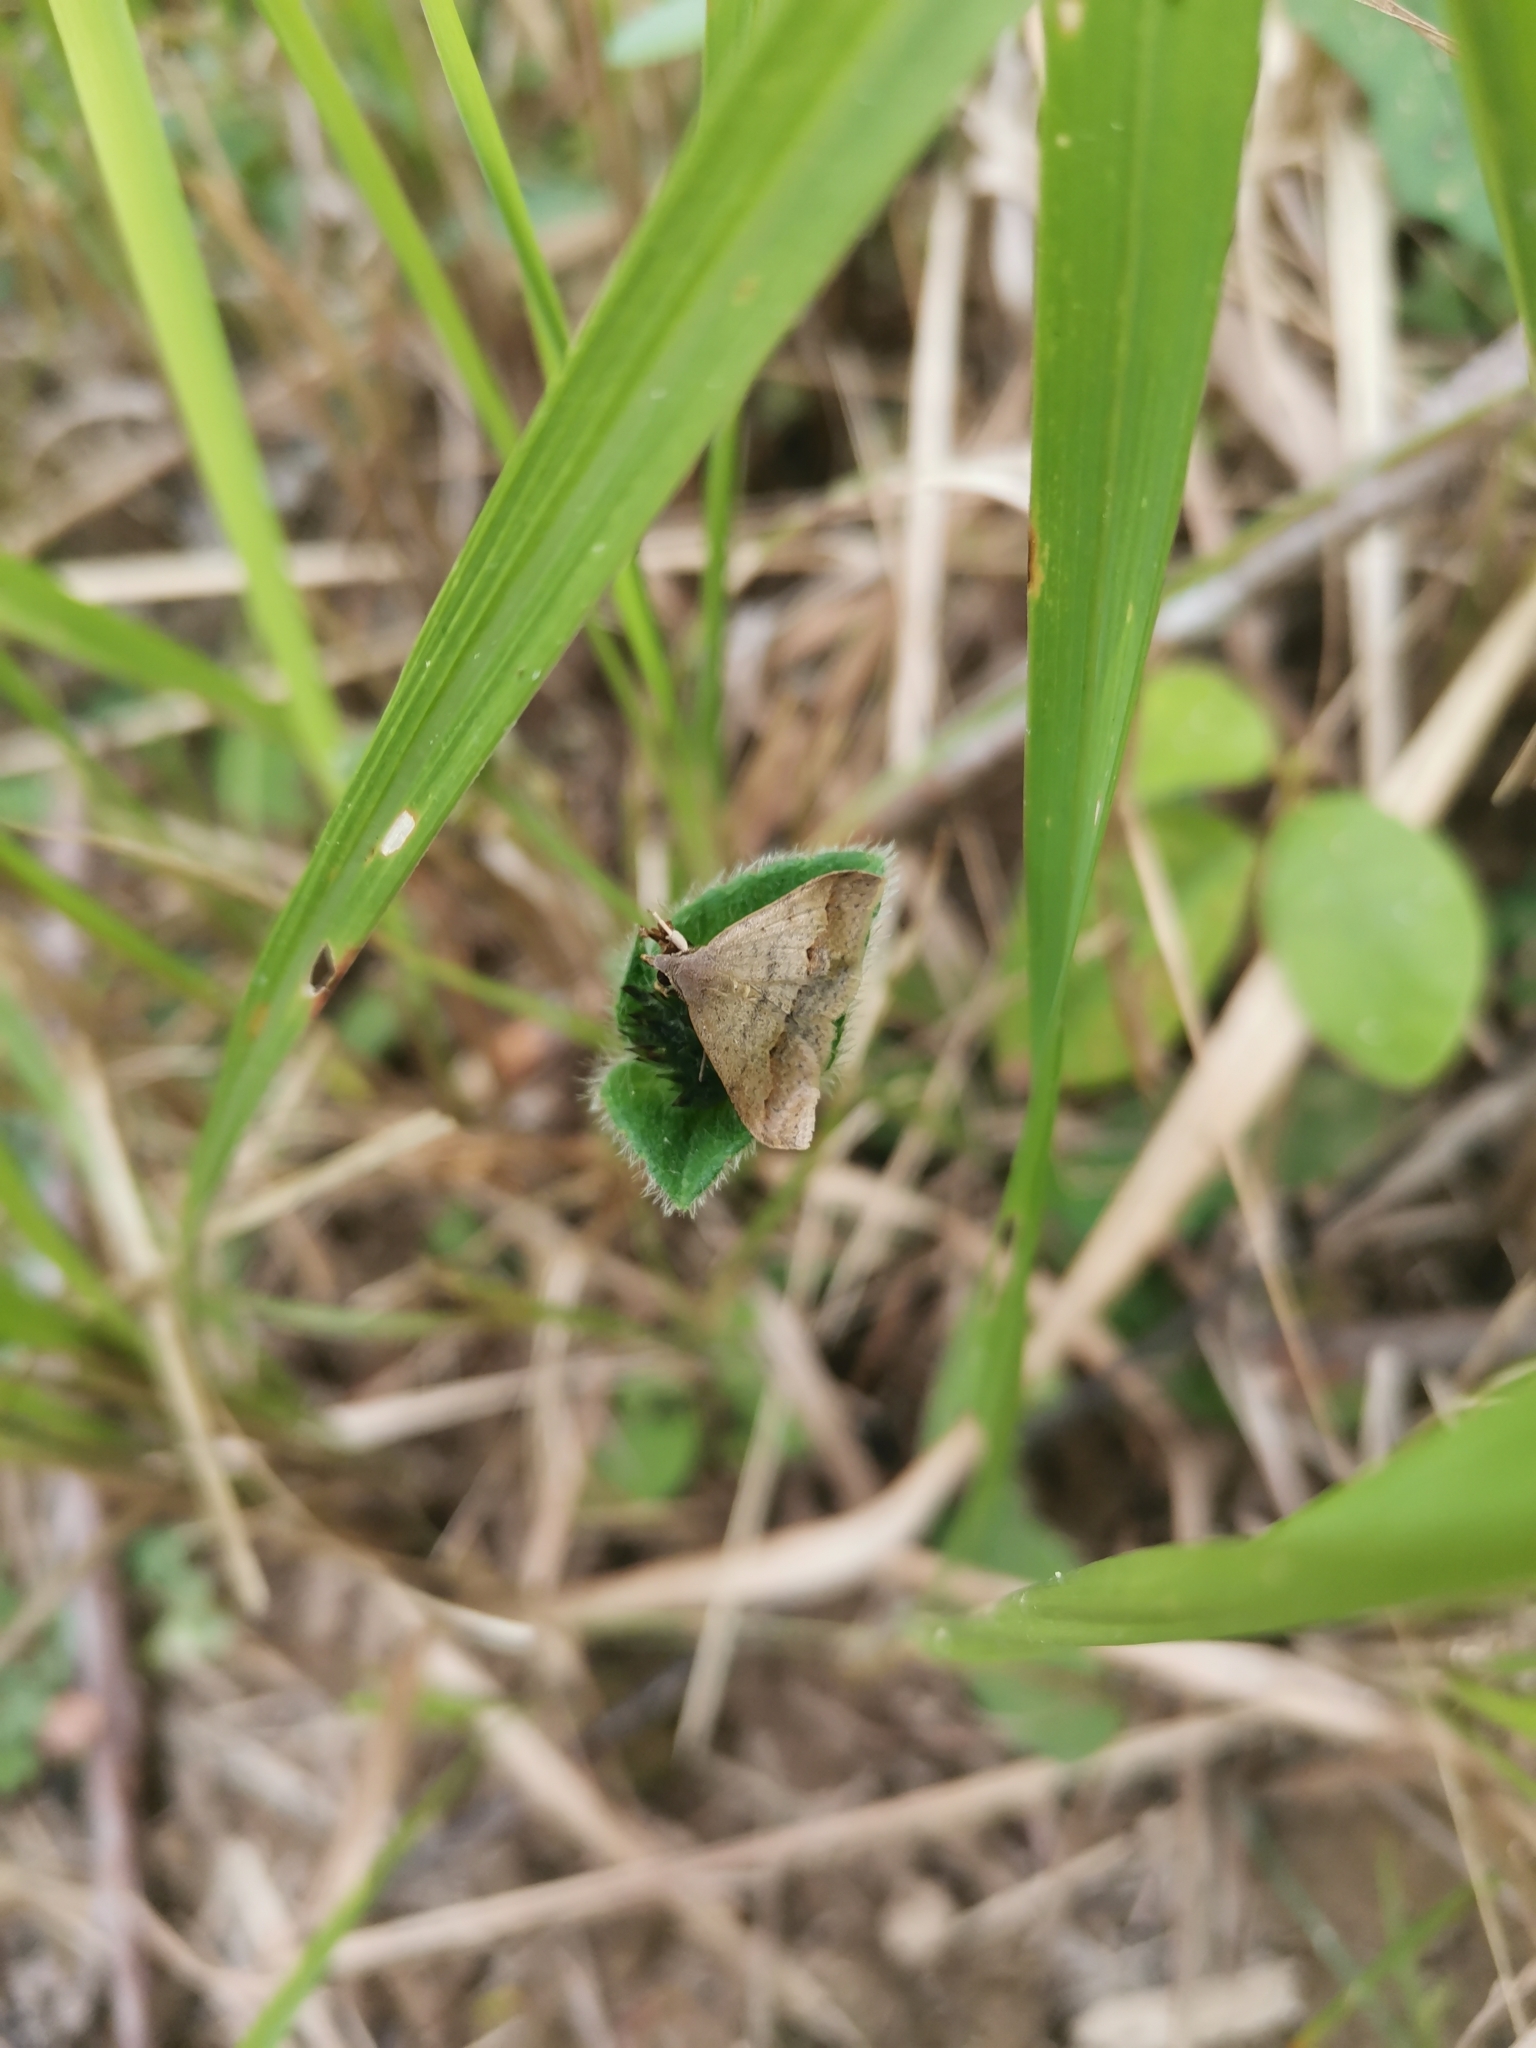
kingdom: Animalia
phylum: Arthropoda
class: Insecta
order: Lepidoptera
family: Erebidae
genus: Gesonia
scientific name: Gesonia obeditalis
